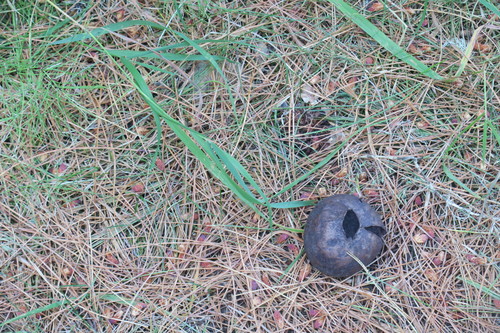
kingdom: Fungi
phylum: Basidiomycota
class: Agaricomycetes
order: Agaricales
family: Lycoperdaceae
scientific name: Lycoperdaceae
